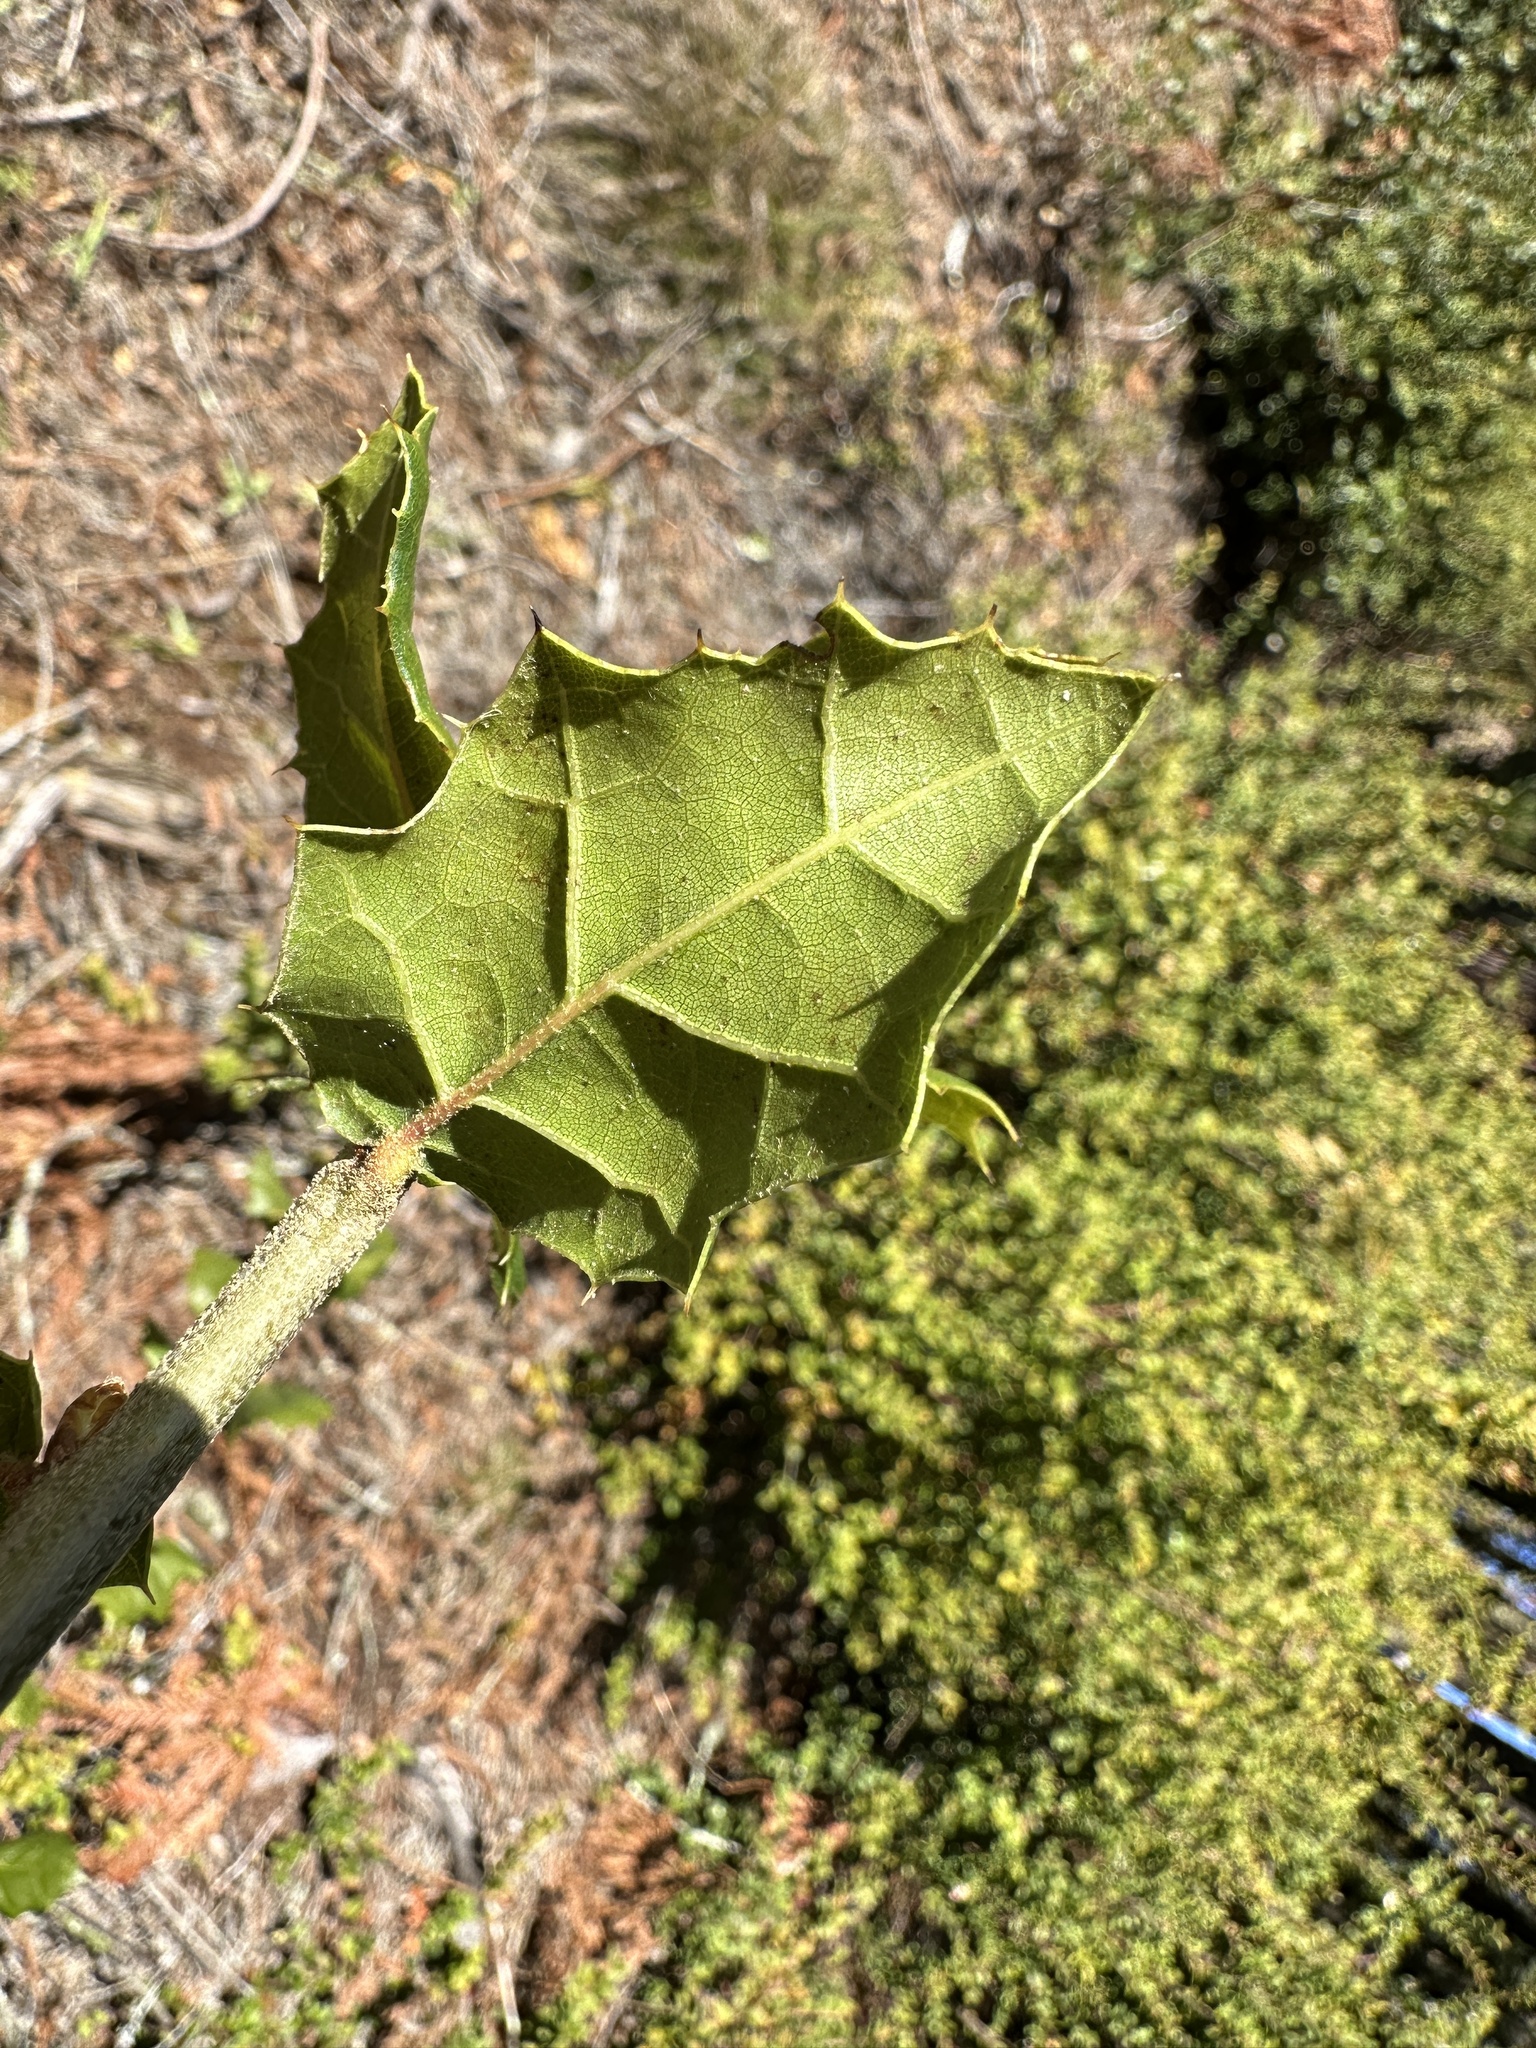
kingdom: Plantae
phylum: Tracheophyta
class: Magnoliopsida
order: Fagales
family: Fagaceae
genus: Quercus
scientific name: Quercus agrifolia
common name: California live oak
